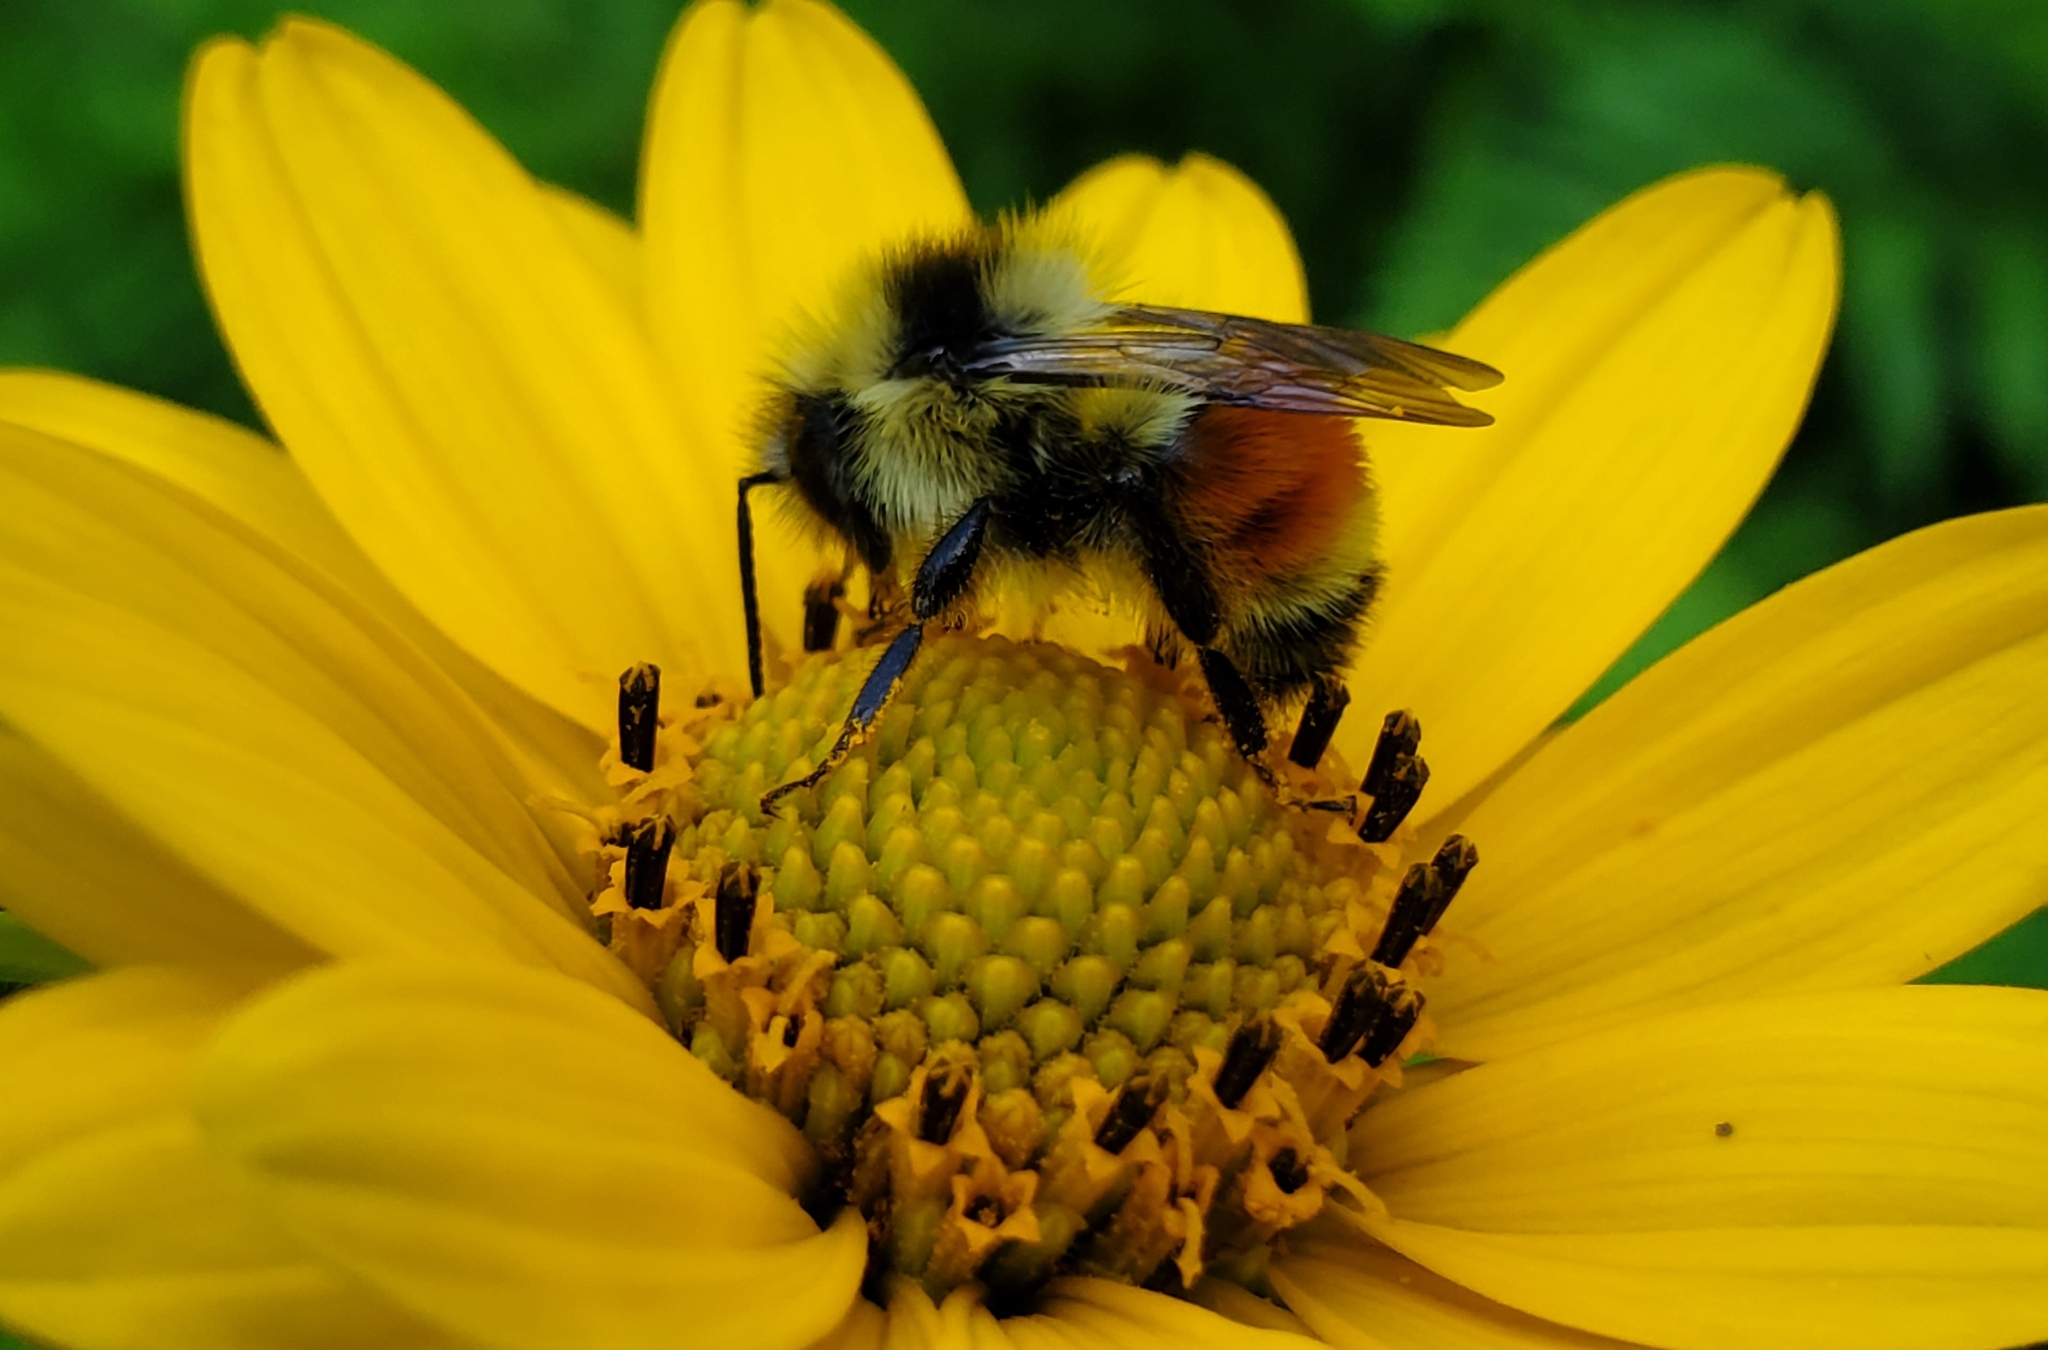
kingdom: Animalia
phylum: Arthropoda
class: Insecta
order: Hymenoptera
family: Apidae
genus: Bombus
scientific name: Bombus ternarius
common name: Tri-colored bumble bee
